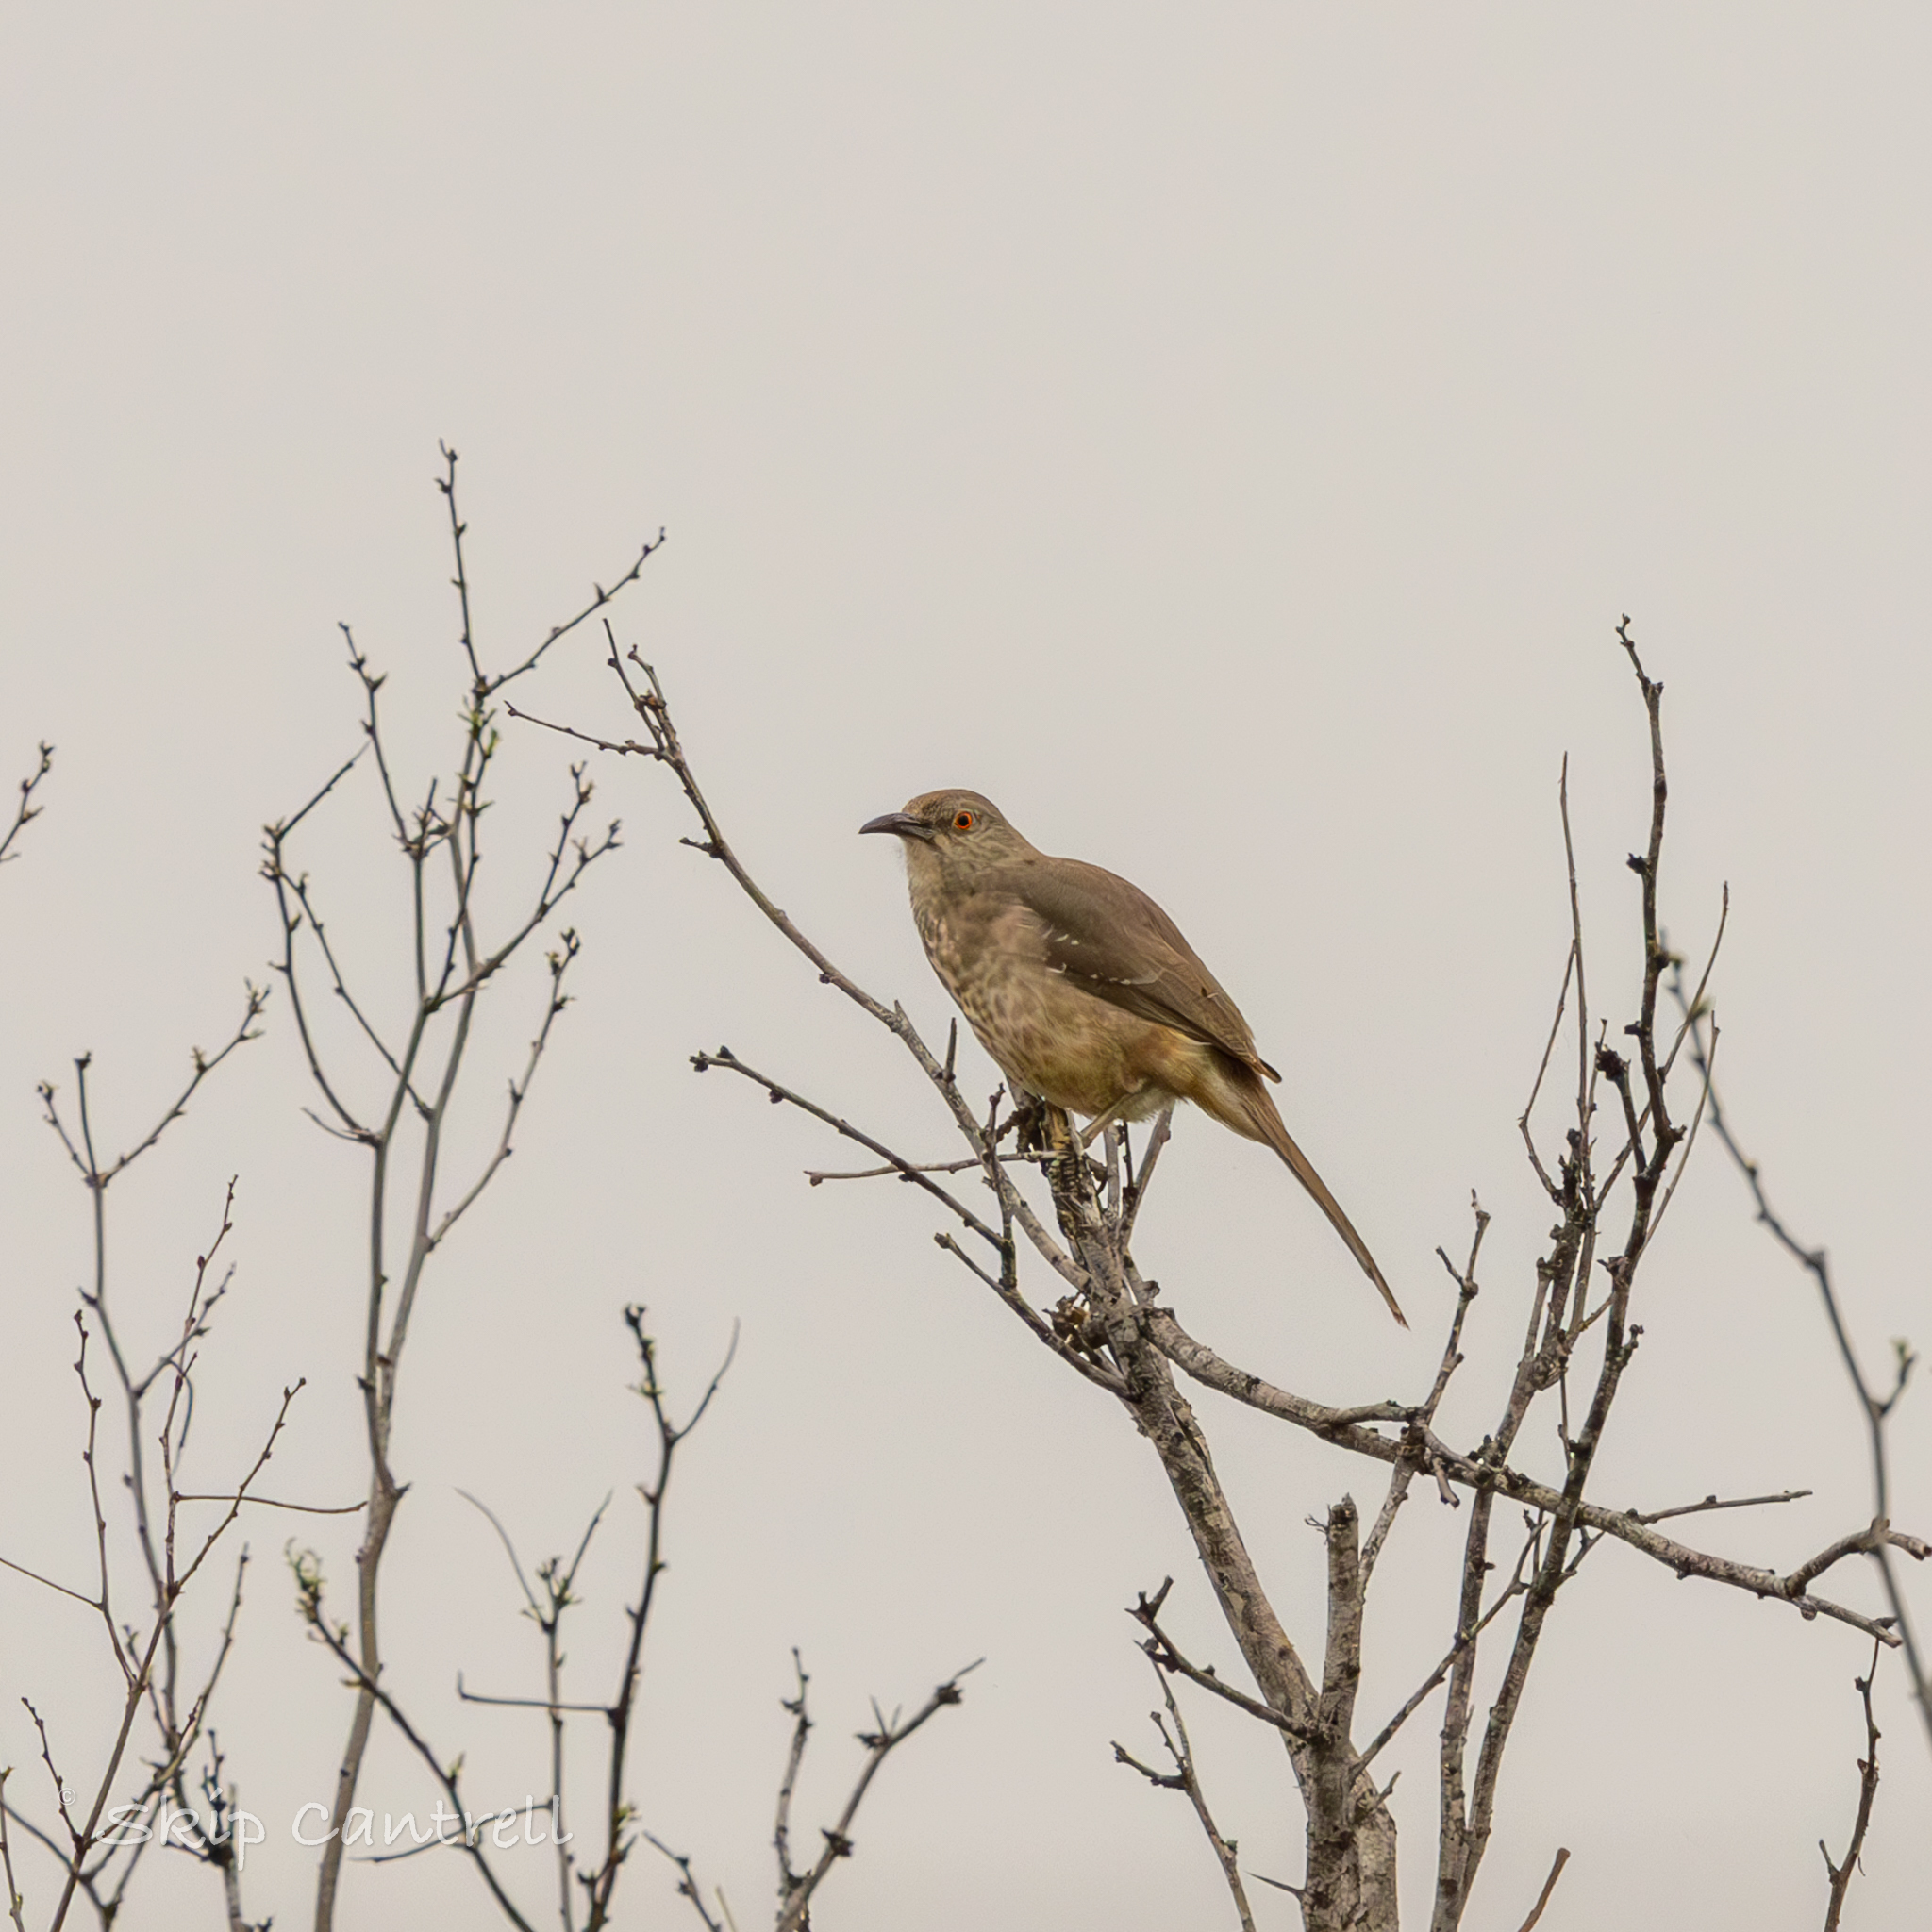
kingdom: Animalia
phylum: Chordata
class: Aves
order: Passeriformes
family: Mimidae
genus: Toxostoma
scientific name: Toxostoma curvirostre
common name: Curve-billed thrasher
